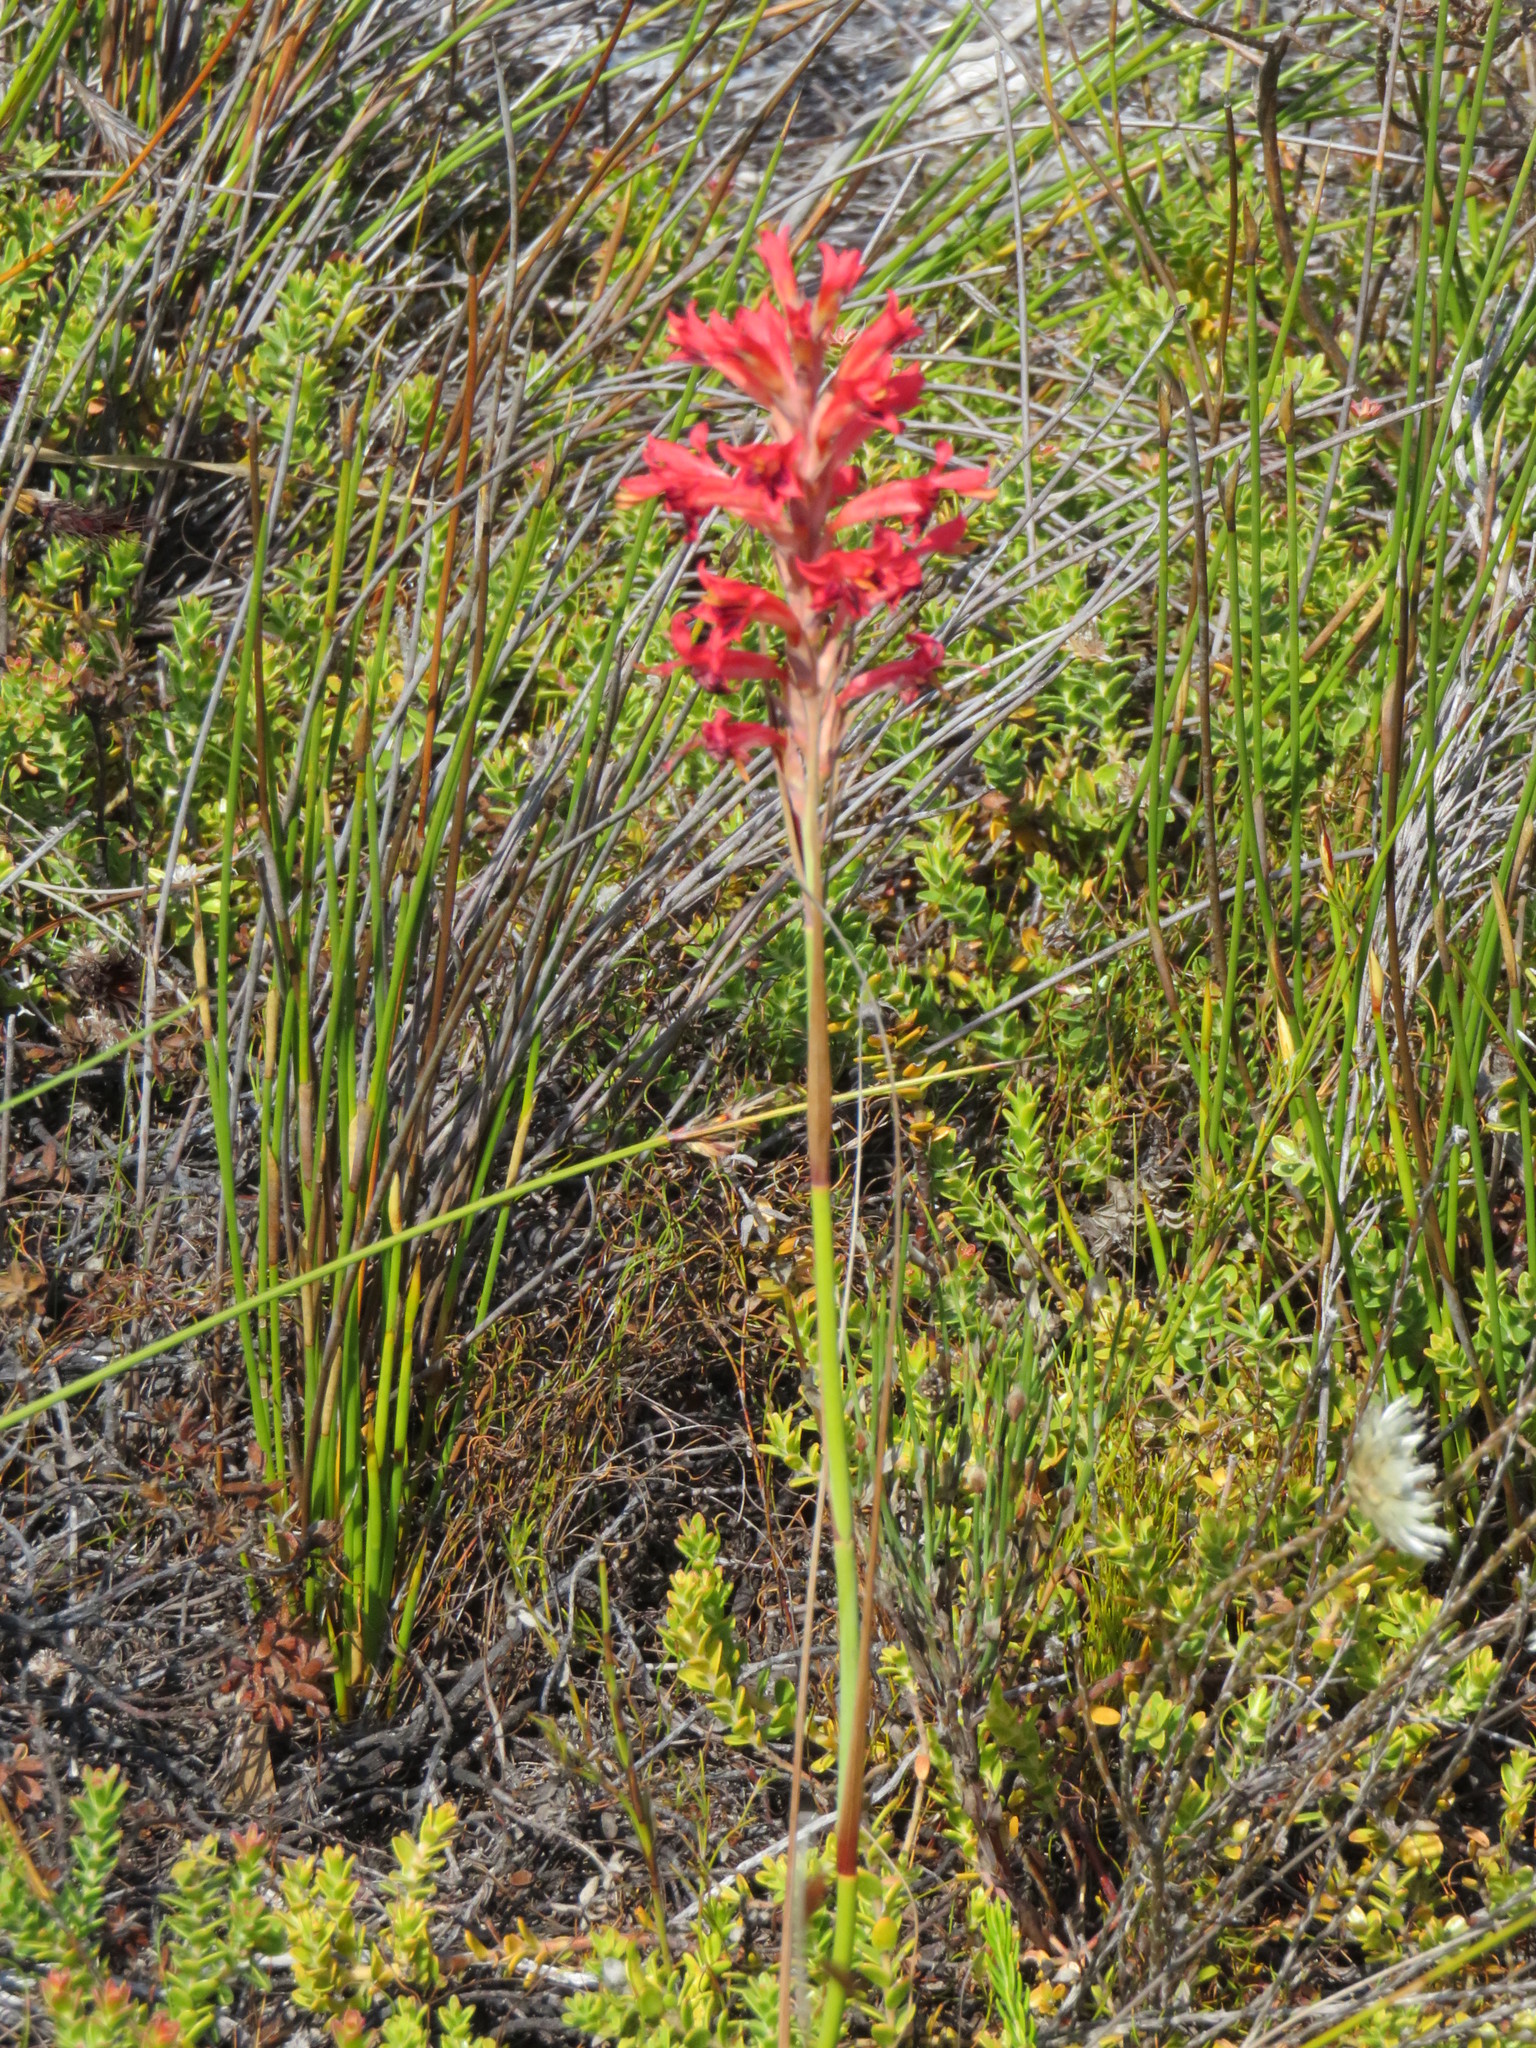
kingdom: Plantae
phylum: Tracheophyta
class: Liliopsida
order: Asparagales
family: Iridaceae
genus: Tritoniopsis
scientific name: Tritoniopsis triticea
